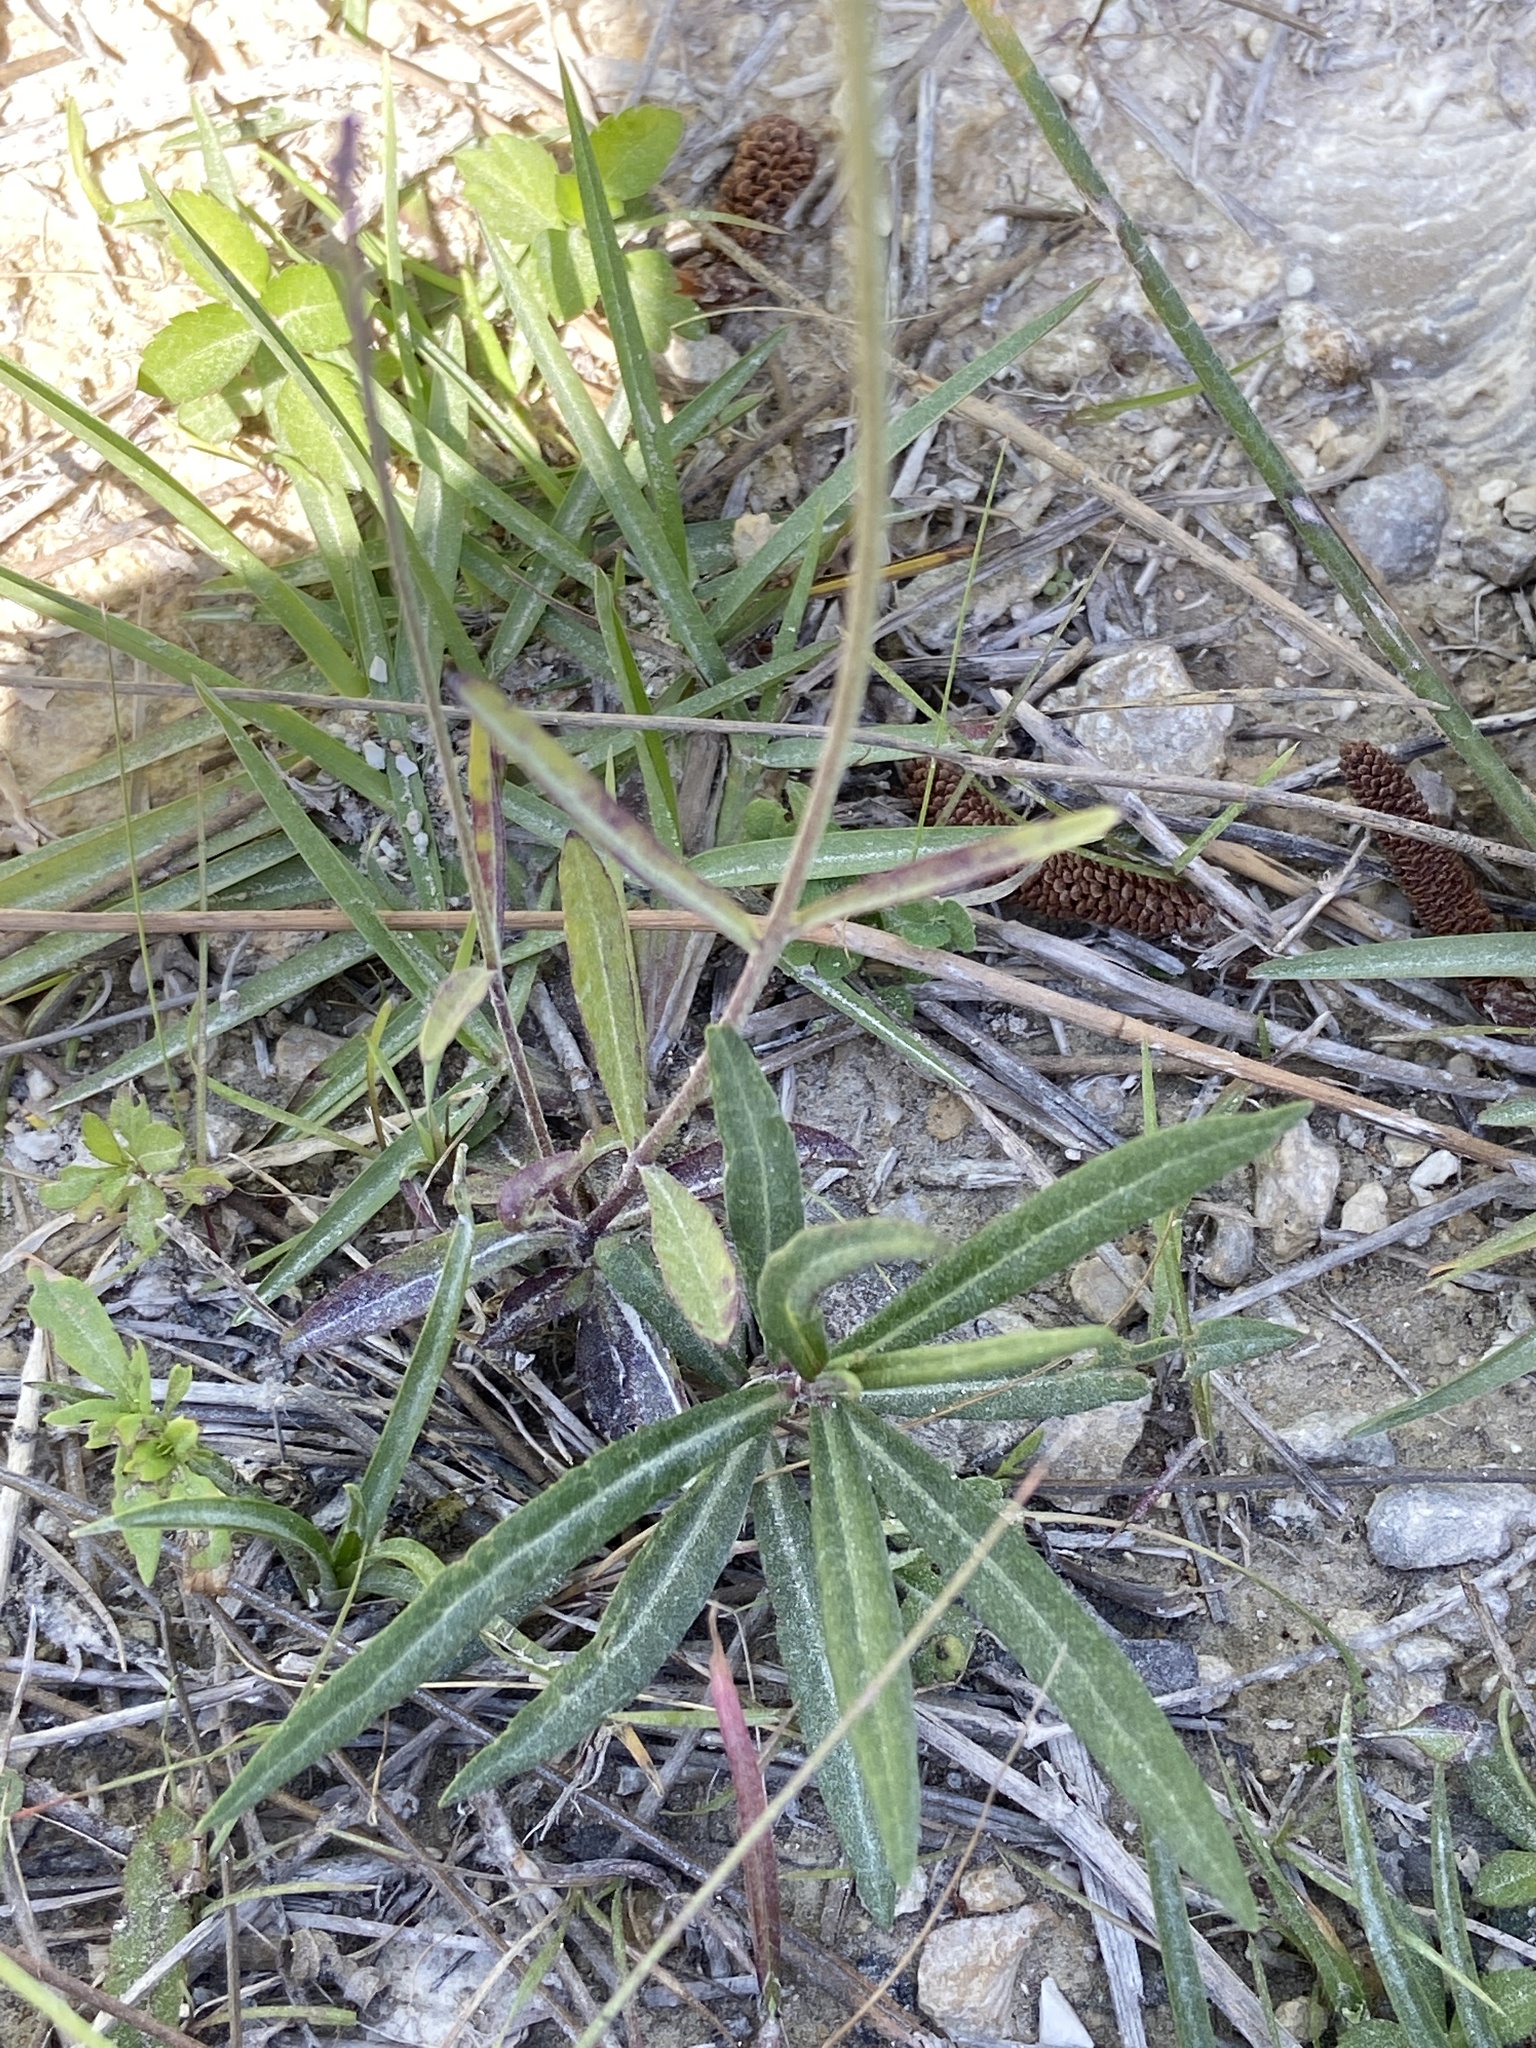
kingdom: Plantae
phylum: Tracheophyta
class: Magnoliopsida
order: Lamiales
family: Orobanchaceae
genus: Buchnera
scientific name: Buchnera floridana
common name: Florida bluehearts
